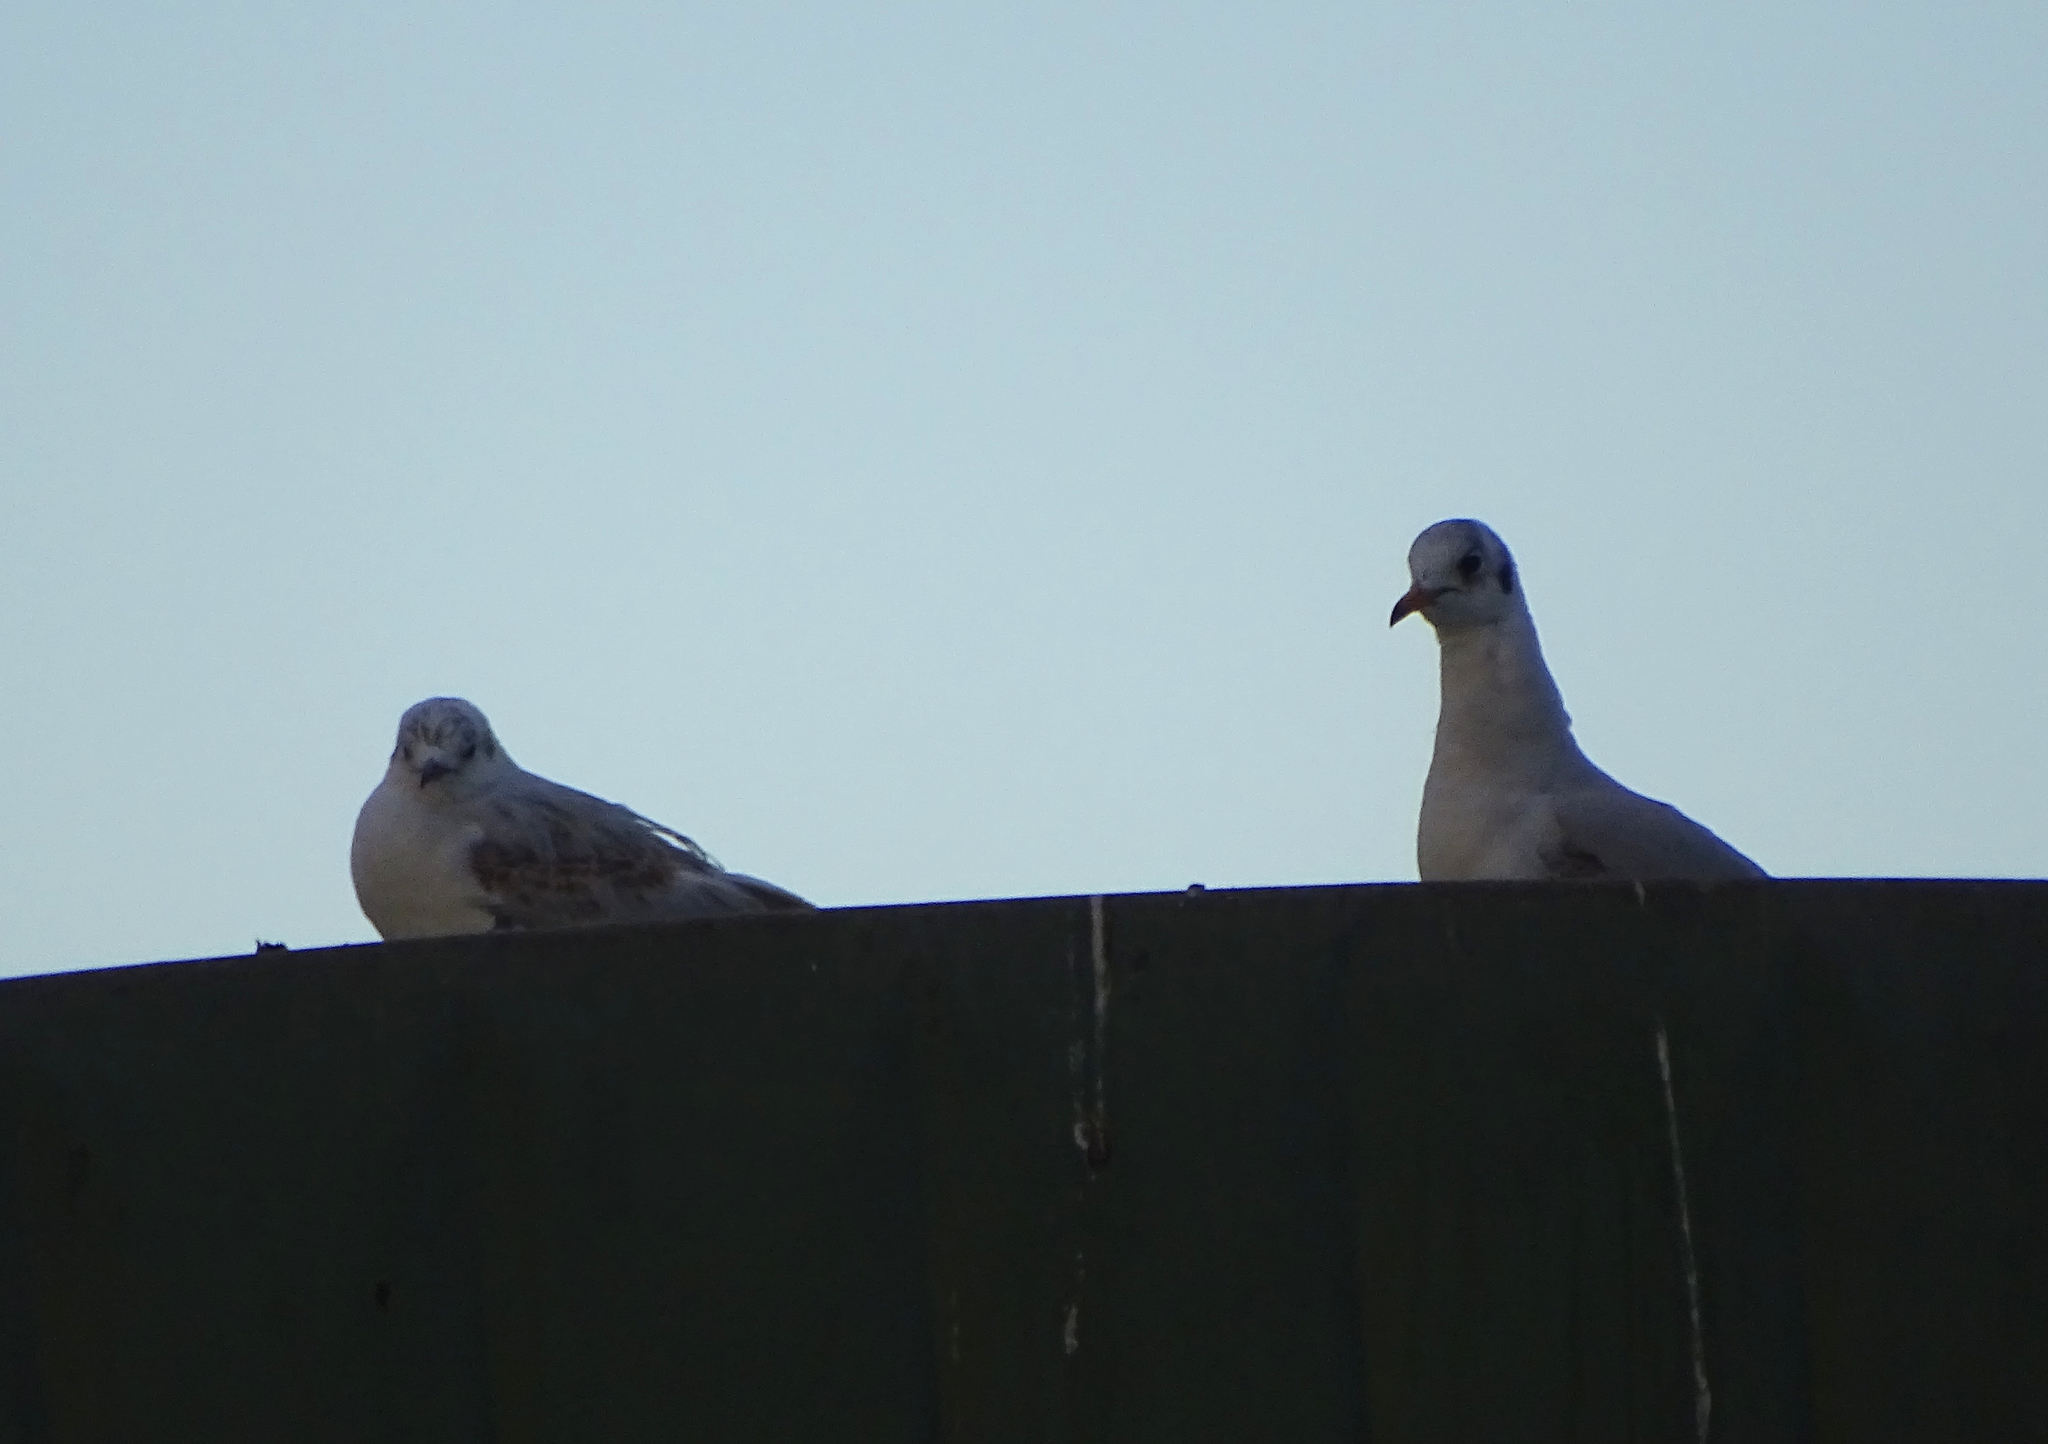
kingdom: Animalia
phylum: Chordata
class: Aves
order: Charadriiformes
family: Laridae
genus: Chroicocephalus
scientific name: Chroicocephalus ridibundus
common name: Black-headed gull
